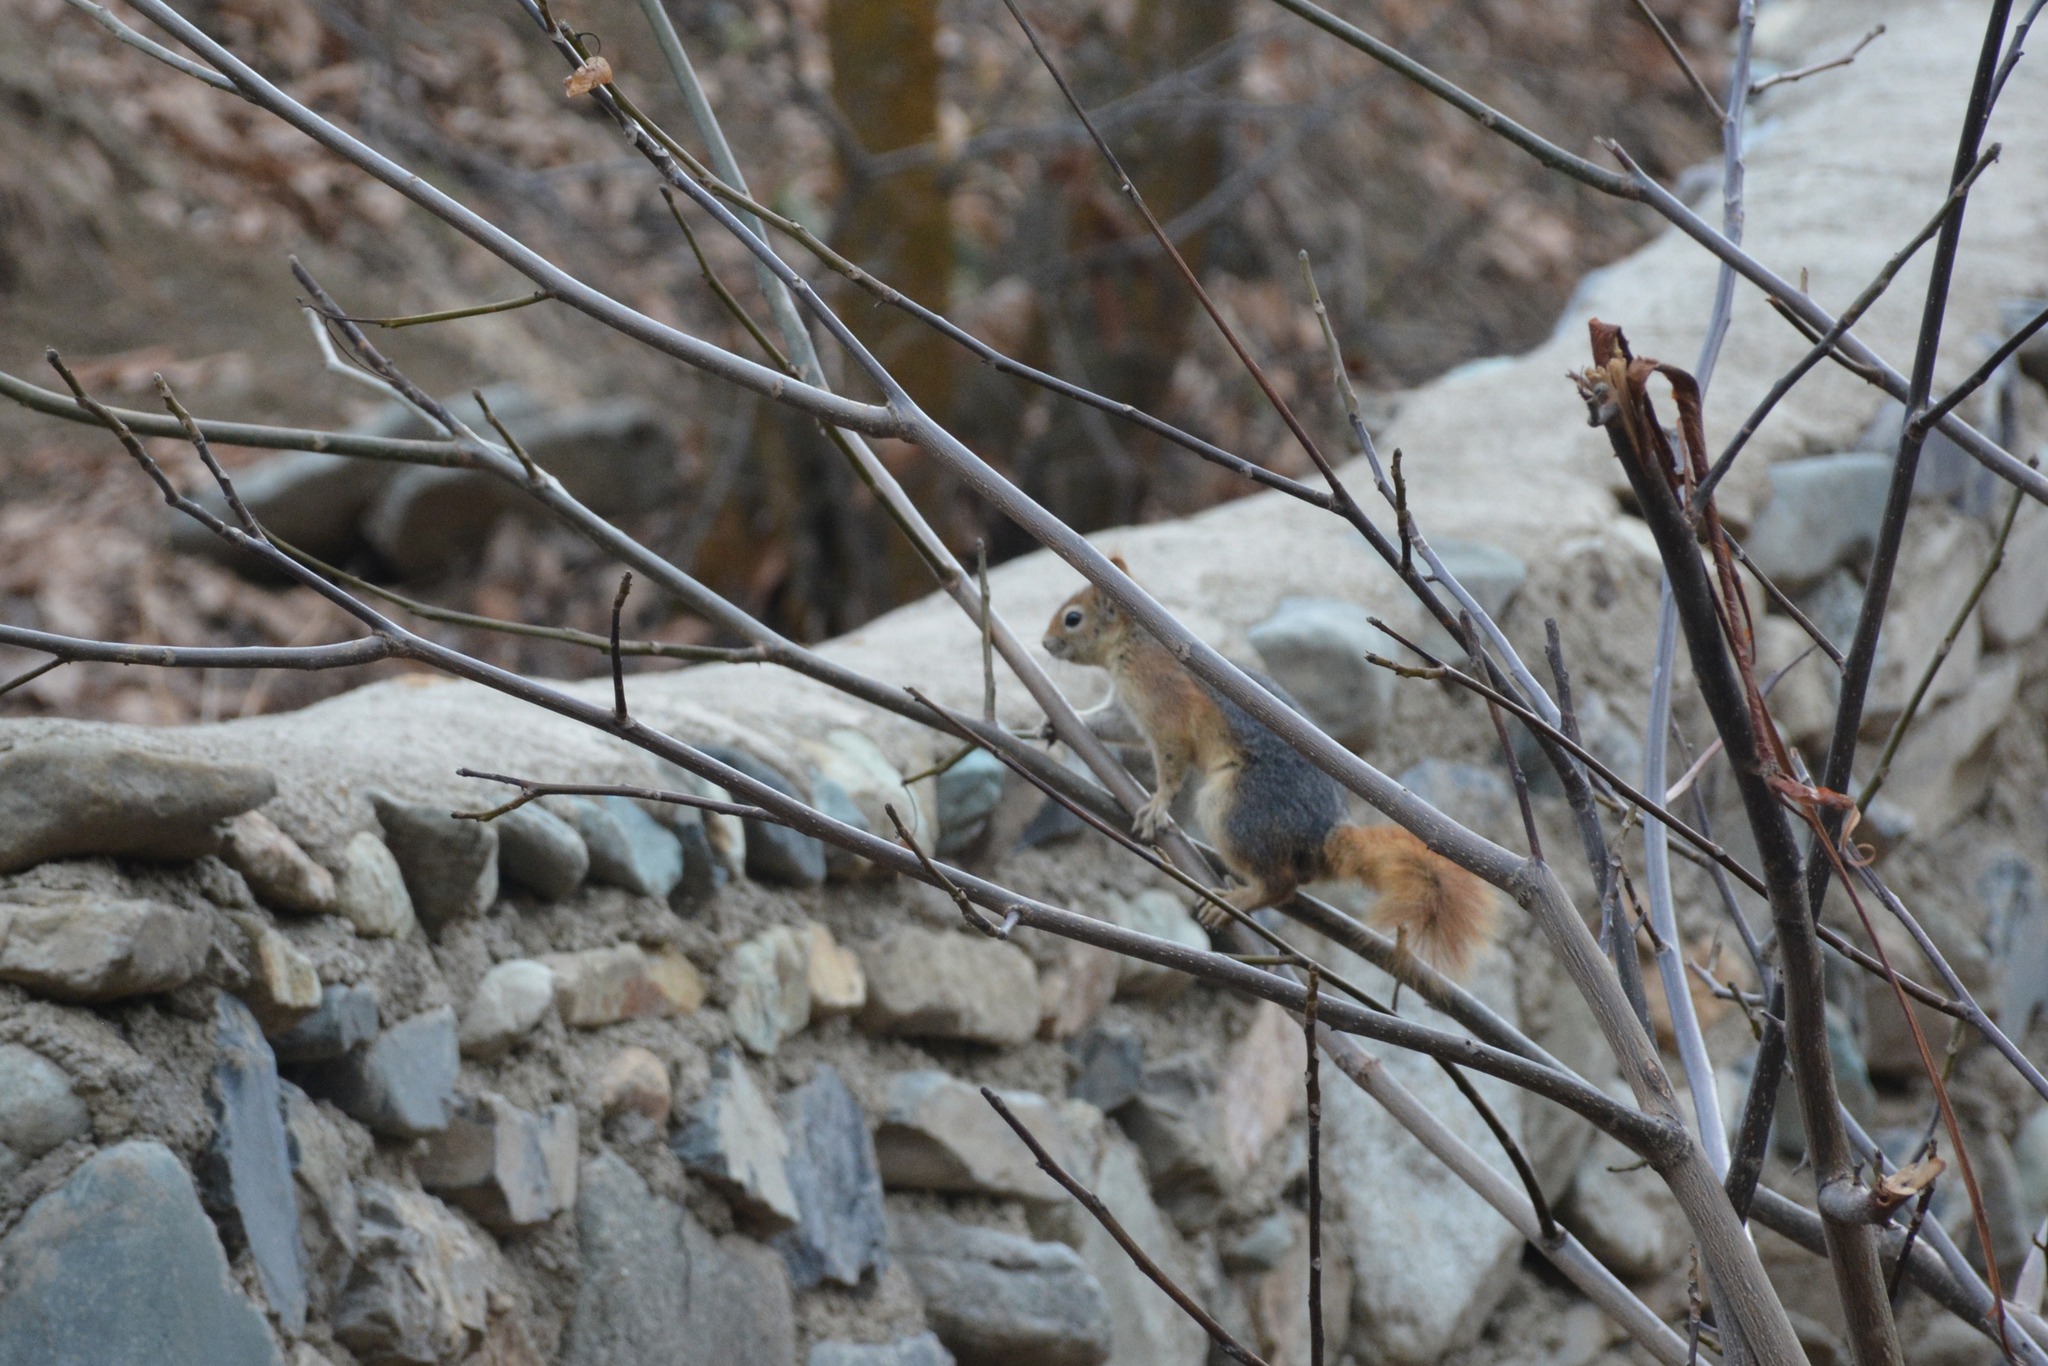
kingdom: Animalia
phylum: Chordata
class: Mammalia
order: Rodentia
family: Sciuridae
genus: Sciurus
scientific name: Sciurus anomalus
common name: Caucasian squirrel
